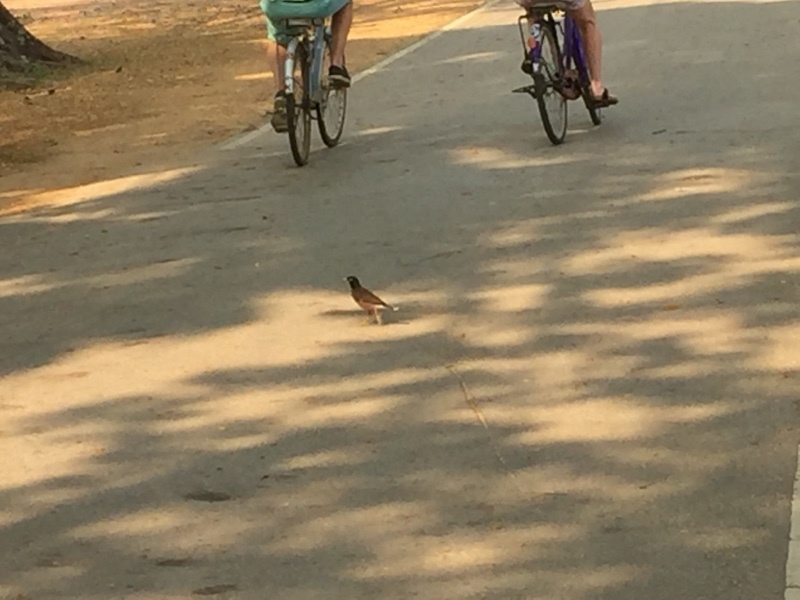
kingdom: Animalia
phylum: Chordata
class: Aves
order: Passeriformes
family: Sturnidae
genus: Acridotheres
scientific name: Acridotheres tristis
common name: Common myna
